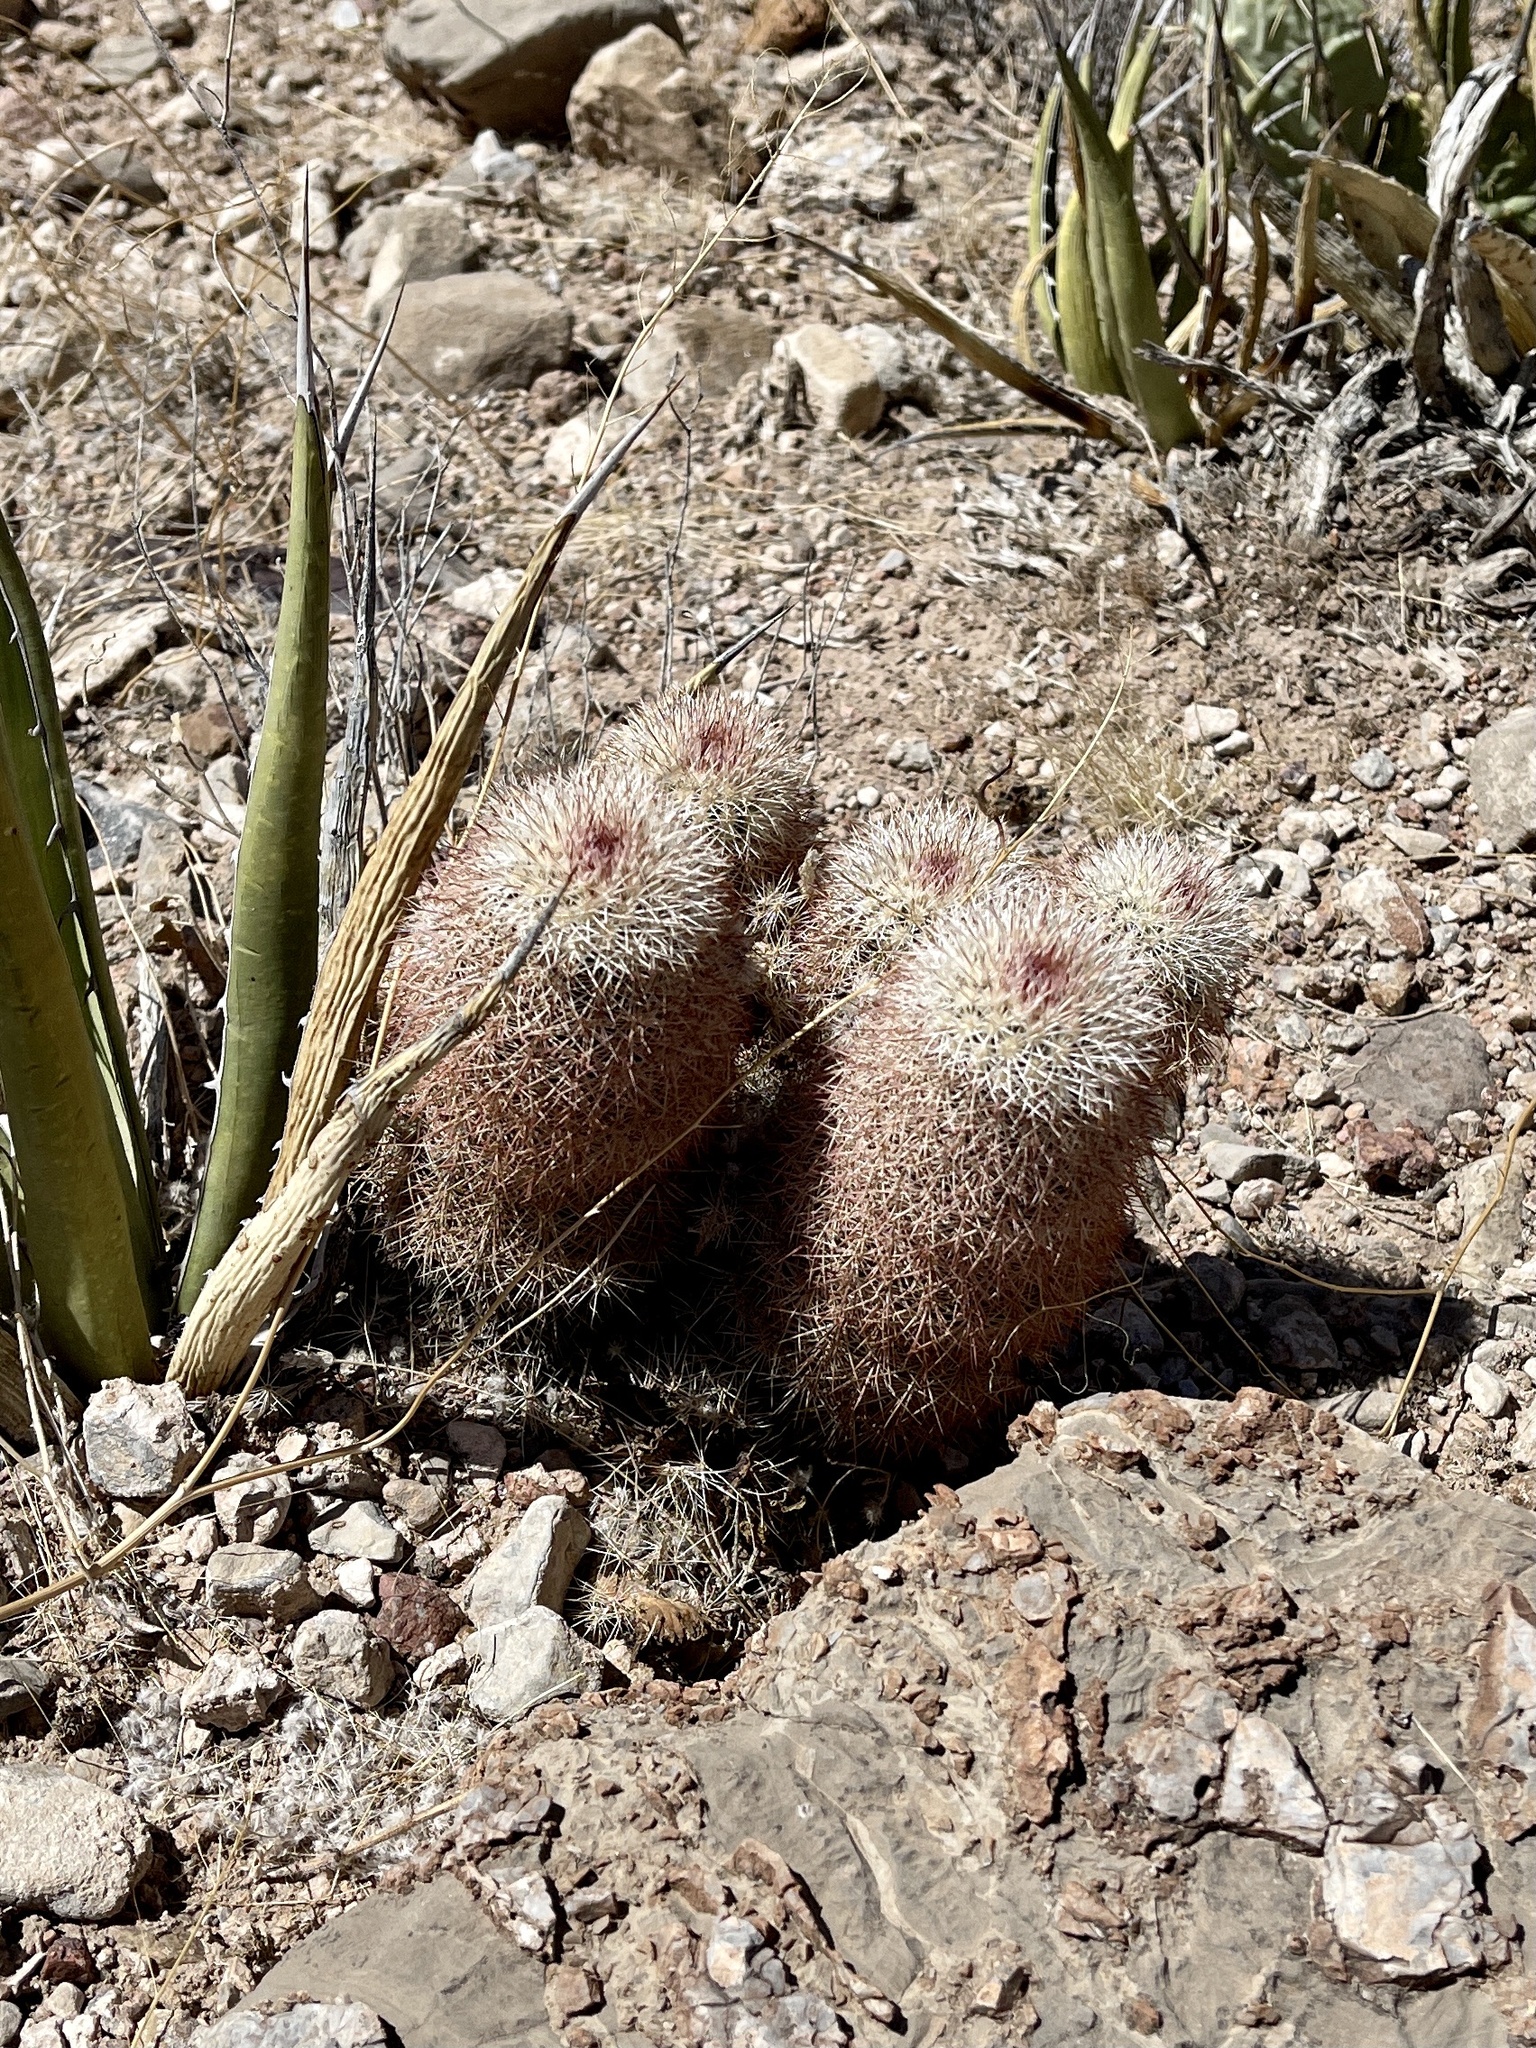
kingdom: Plantae
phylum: Tracheophyta
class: Magnoliopsida
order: Caryophyllales
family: Cactaceae
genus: Echinocereus
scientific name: Echinocereus dasyacanthus
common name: Spiny hedgehog cactus
